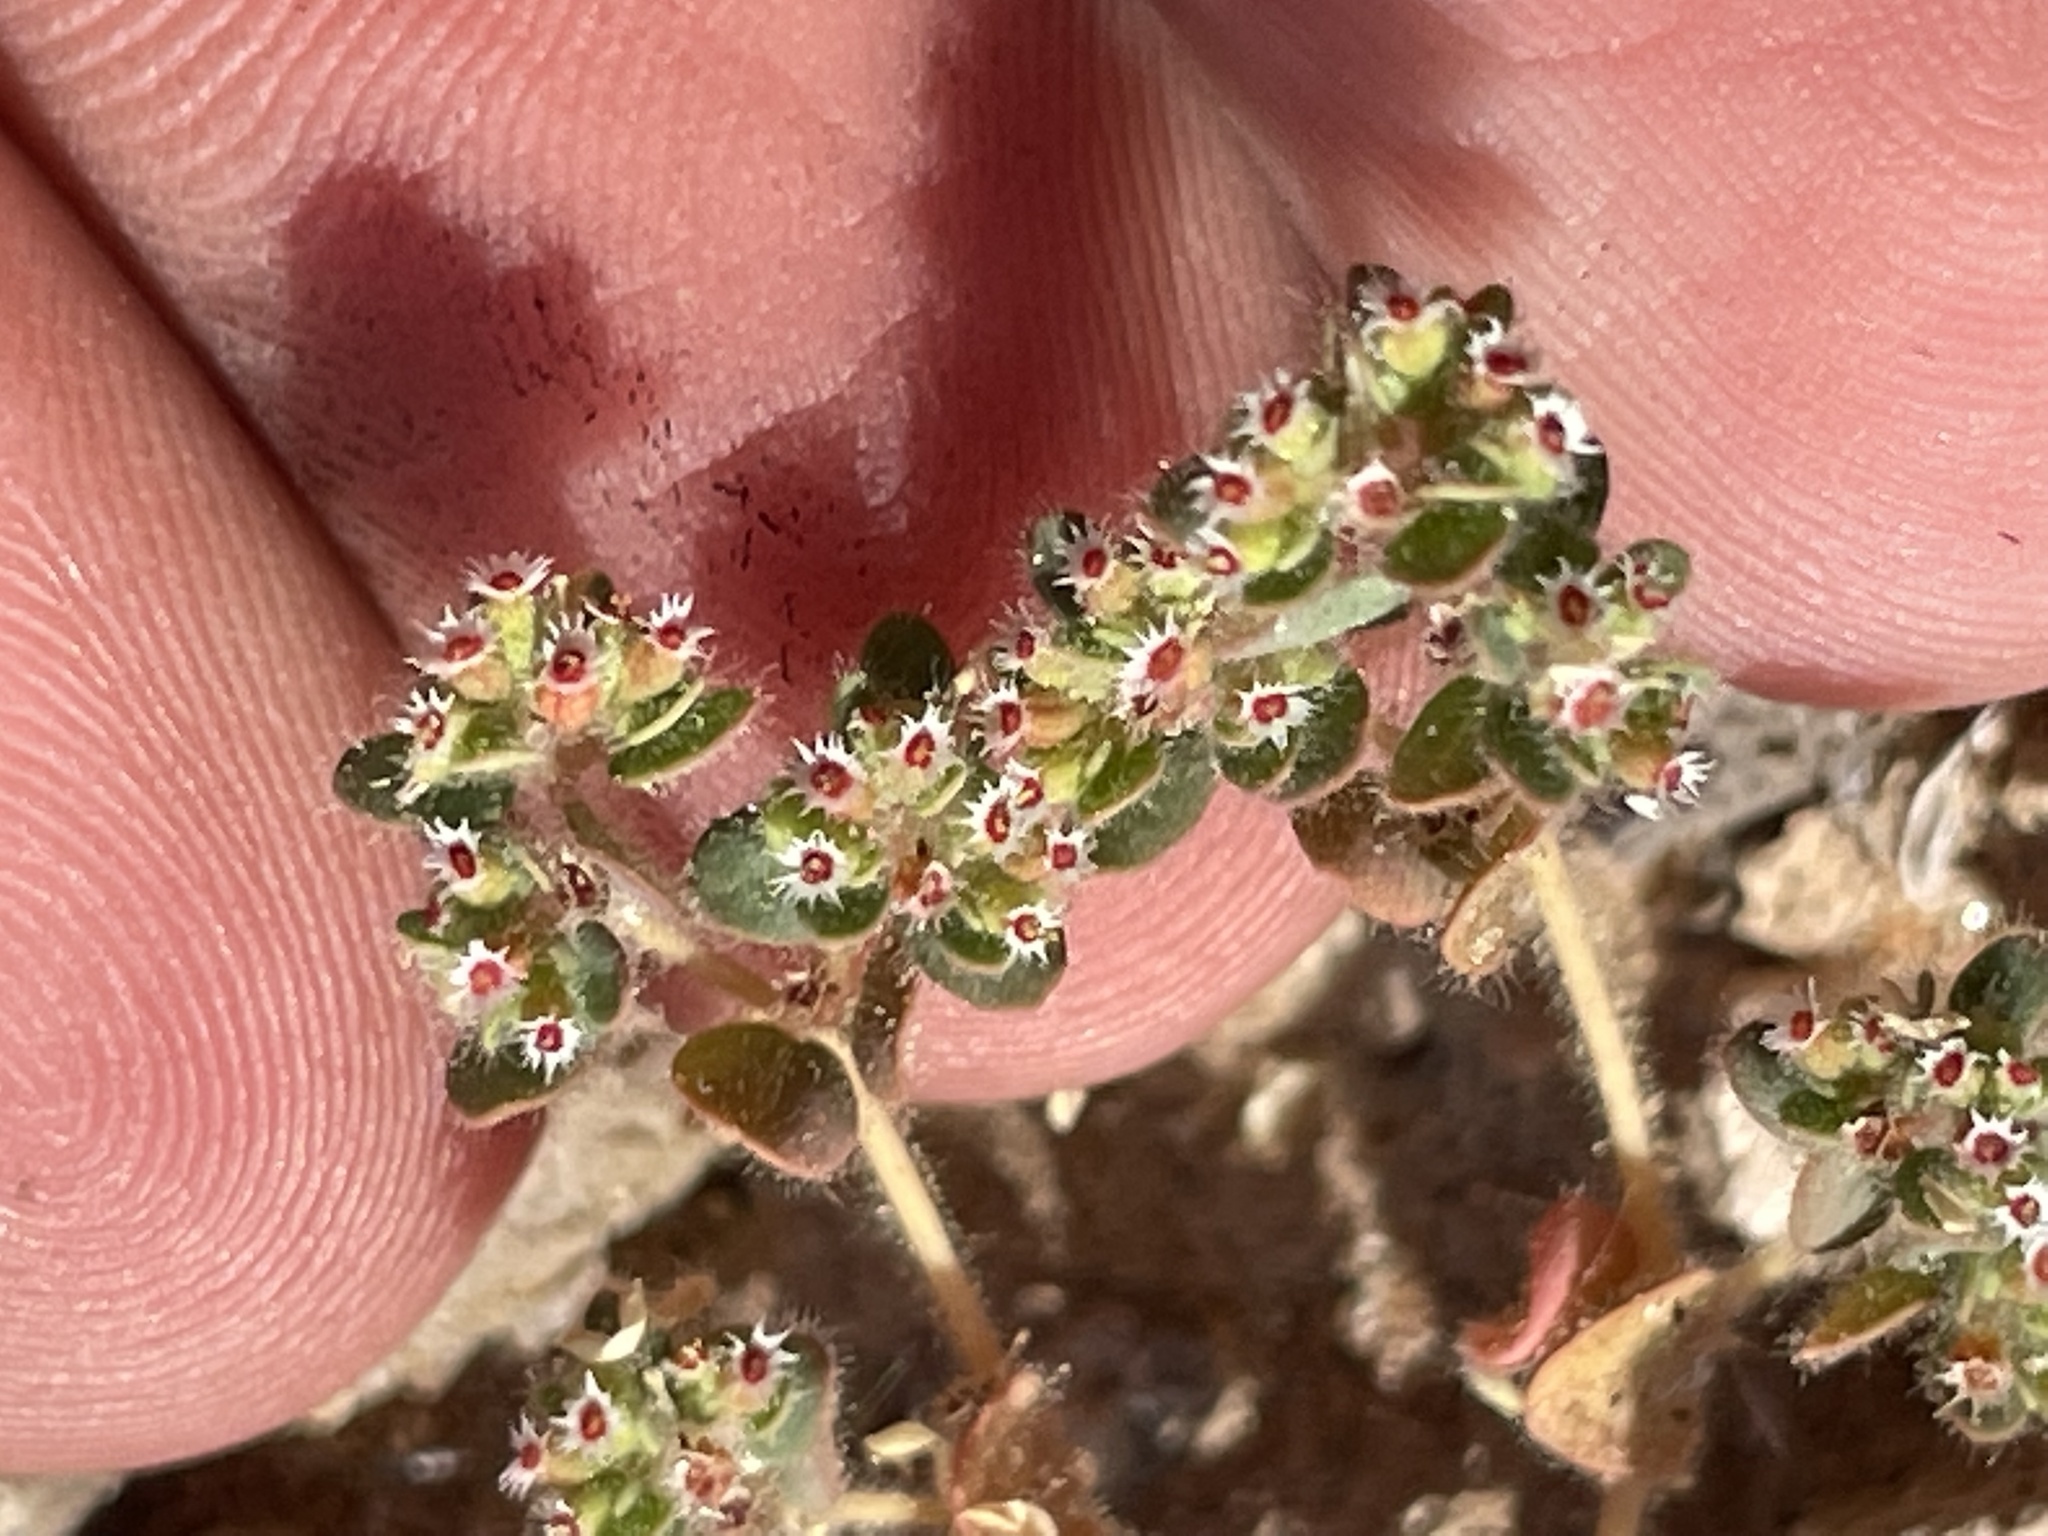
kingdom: Plantae
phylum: Tracheophyta
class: Magnoliopsida
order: Malpighiales
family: Euphorbiaceae
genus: Euphorbia
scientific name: Euphorbia setiloba
